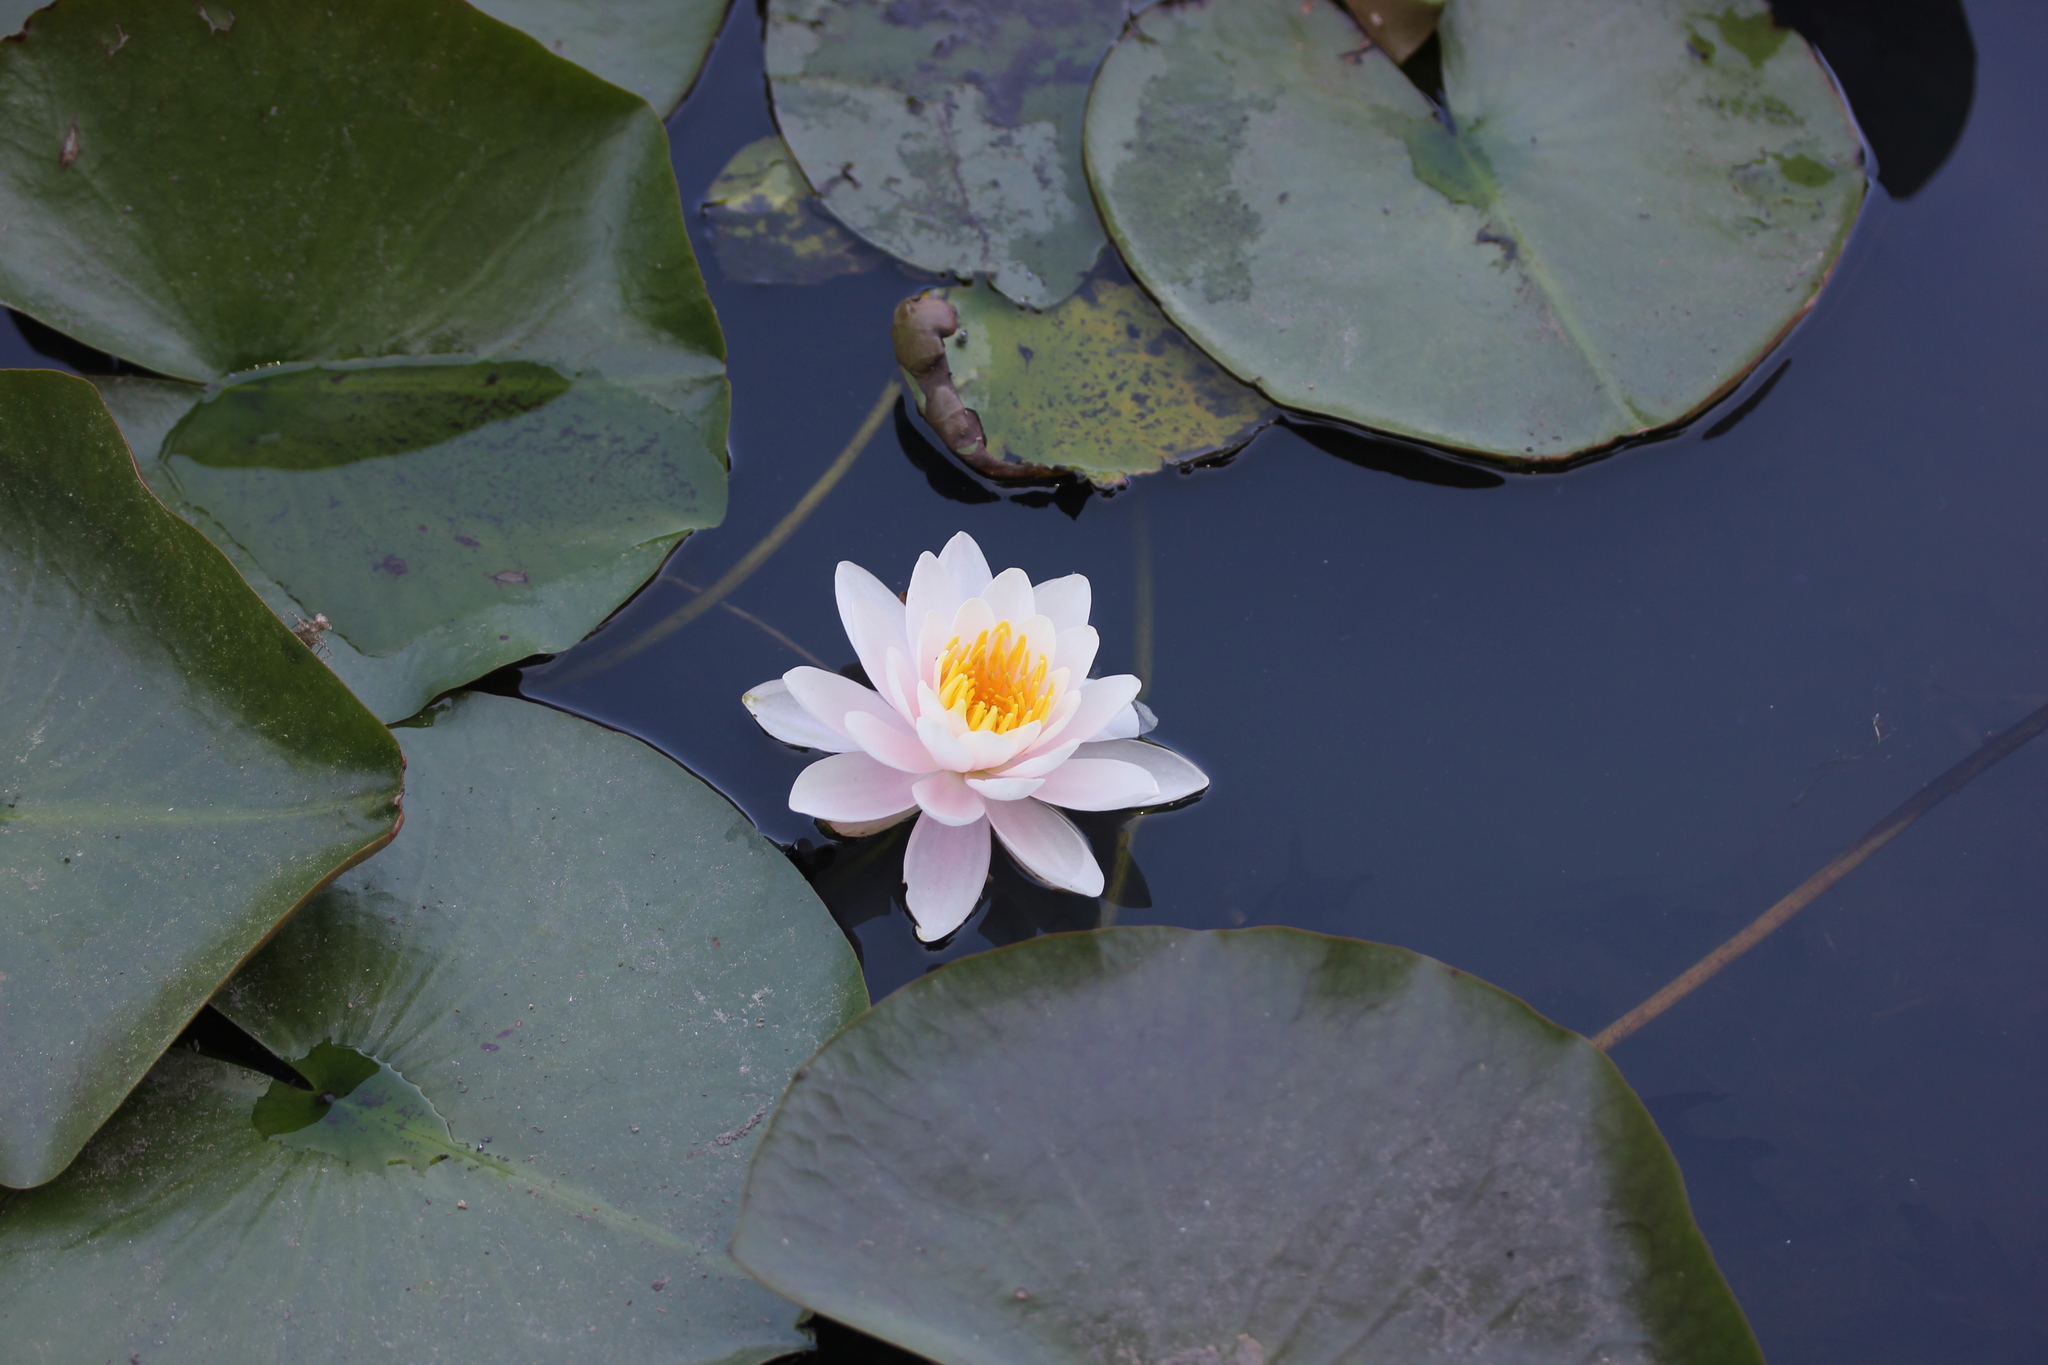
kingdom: Plantae
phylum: Tracheophyta
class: Magnoliopsida
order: Nymphaeales
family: Nymphaeaceae
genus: Nymphaea
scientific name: Nymphaea odorata
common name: Fragrant water-lily
